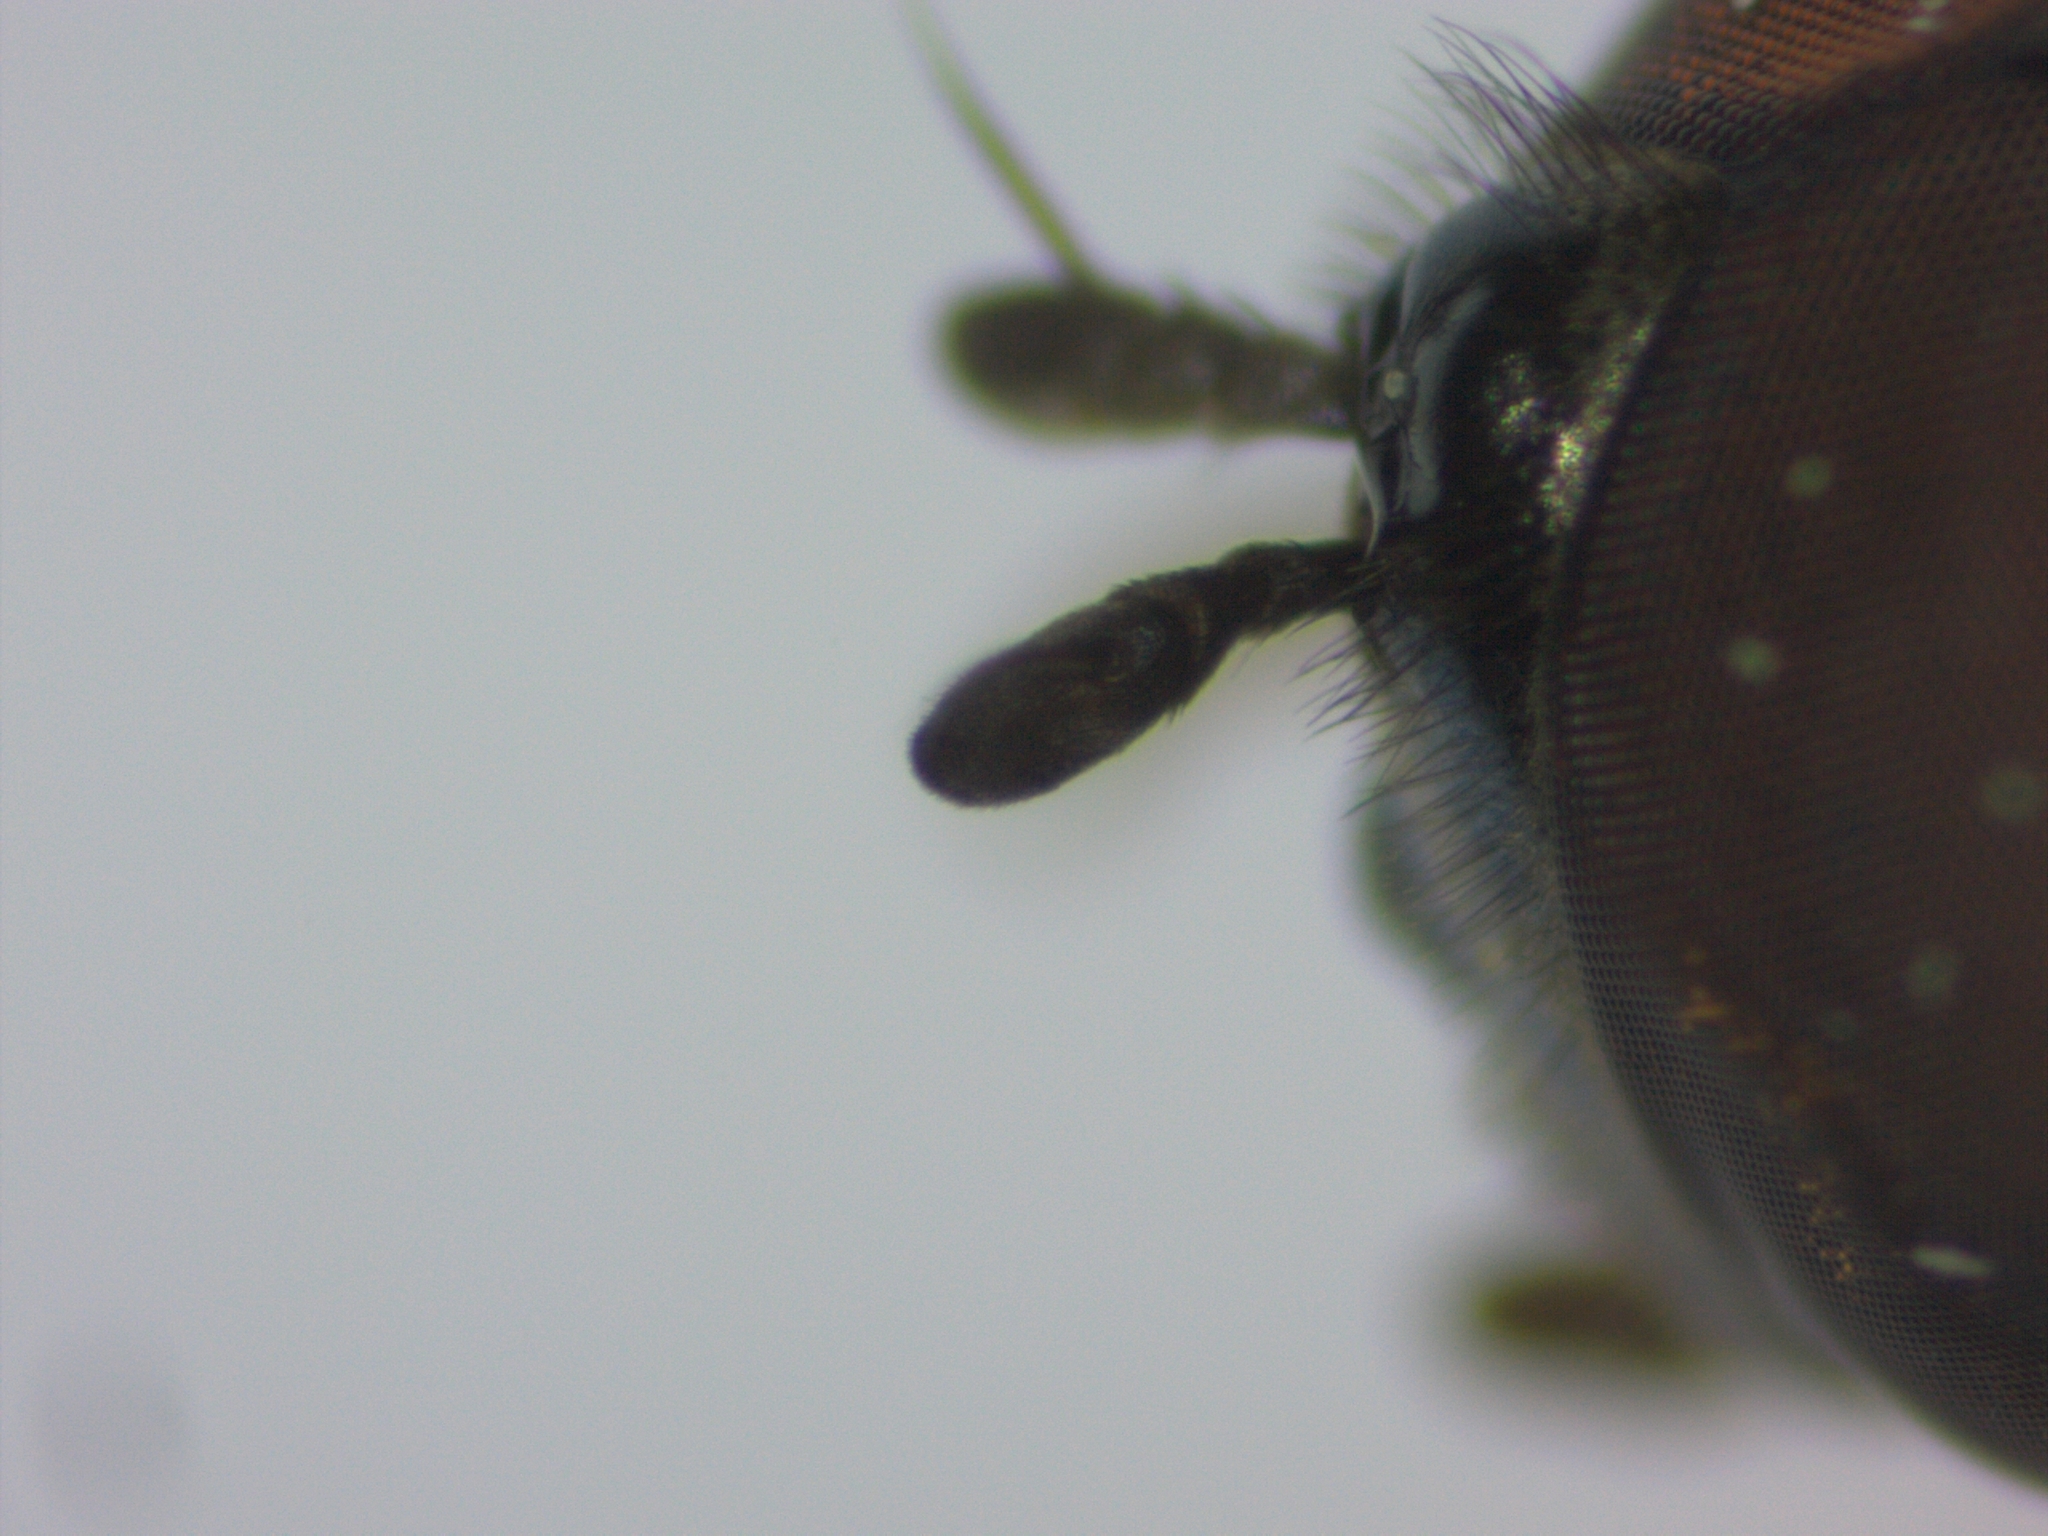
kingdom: Animalia
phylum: Arthropoda
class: Insecta
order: Diptera
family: Syrphidae
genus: Melanostoma
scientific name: Melanostoma mellina
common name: Hover fly
